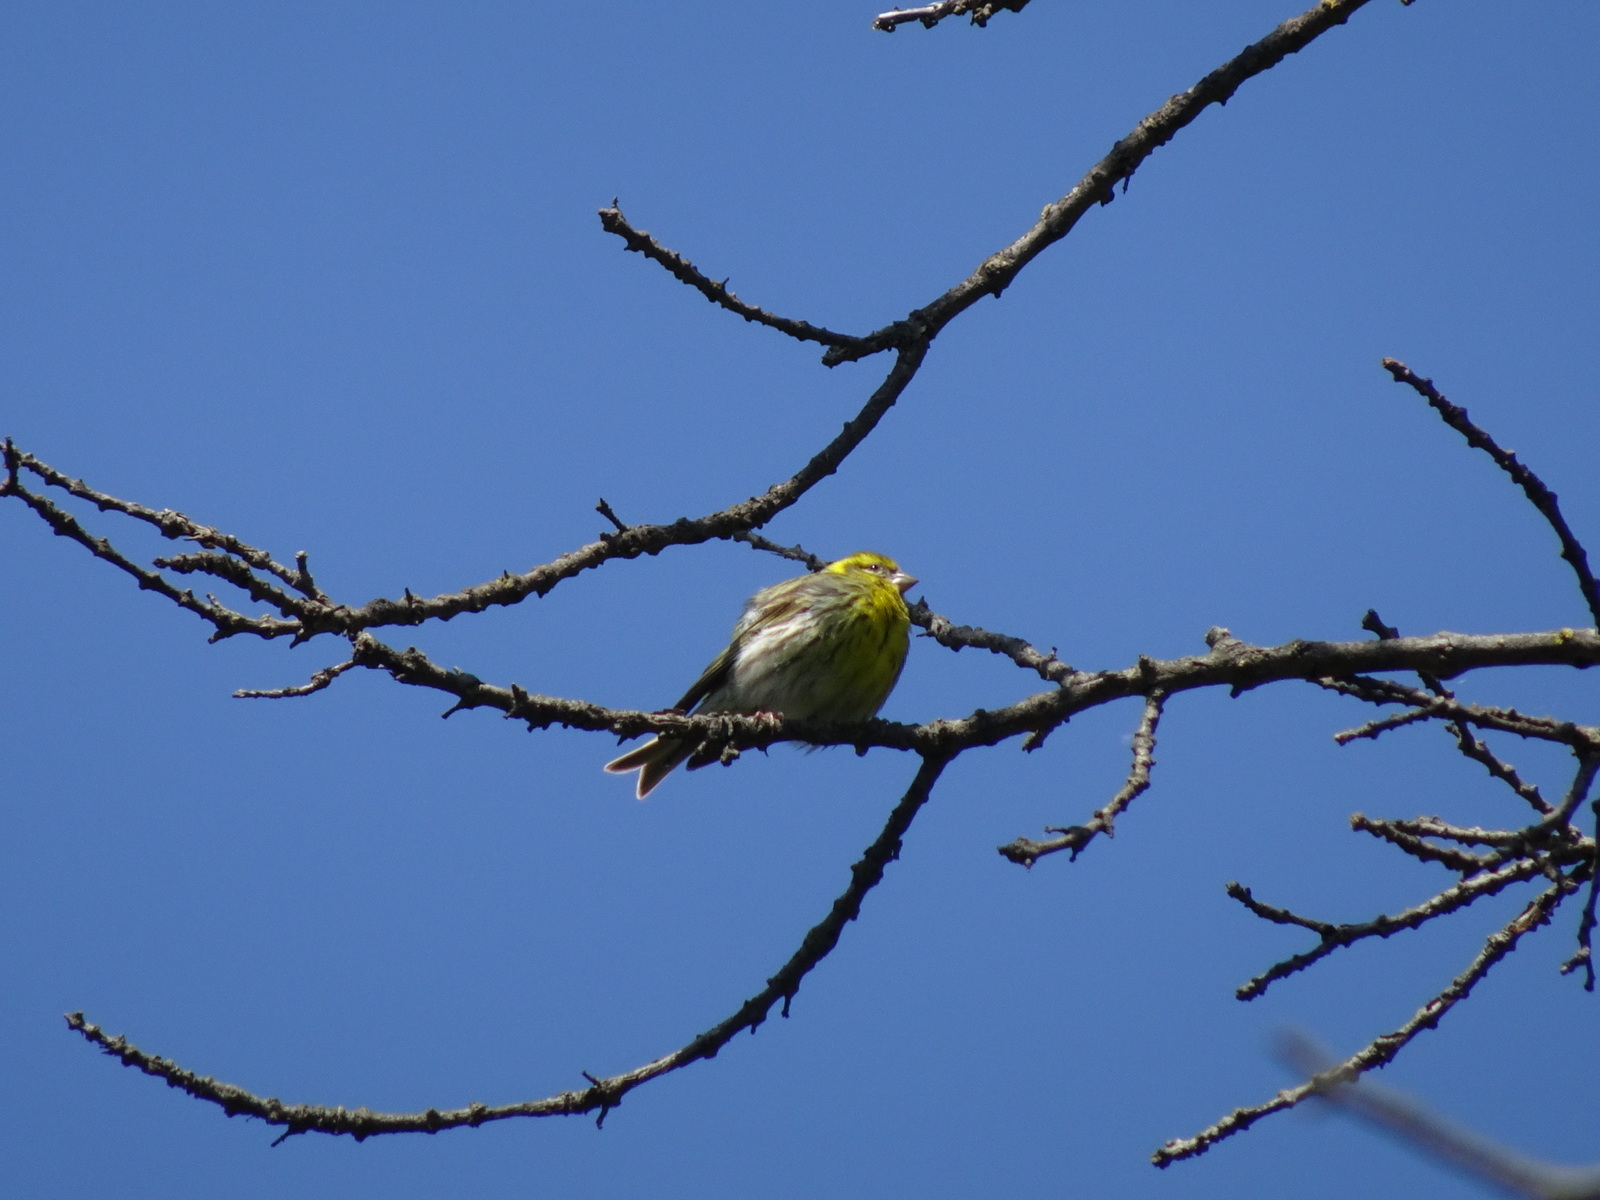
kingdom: Animalia
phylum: Chordata
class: Aves
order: Passeriformes
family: Fringillidae
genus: Serinus
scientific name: Serinus serinus
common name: European serin
